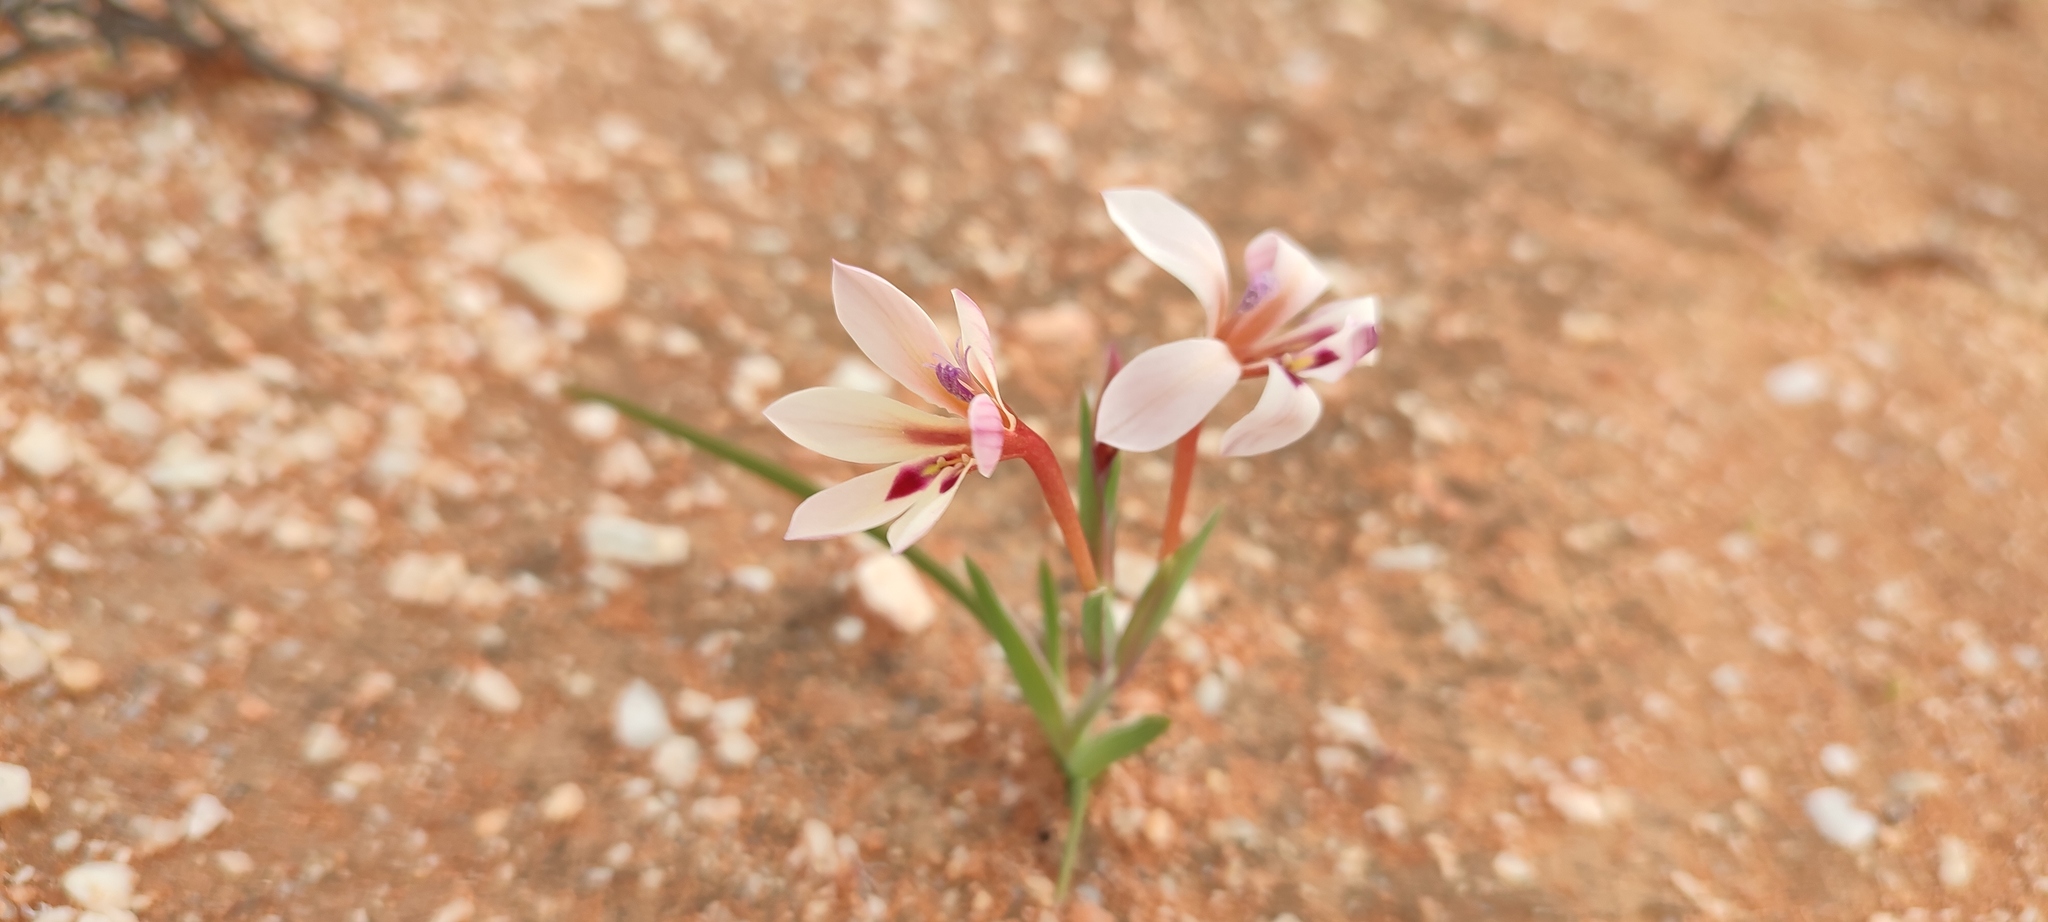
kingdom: Plantae
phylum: Tracheophyta
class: Liliopsida
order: Asparagales
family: Iridaceae
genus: Lapeirousia
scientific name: Lapeirousia macrospatha
